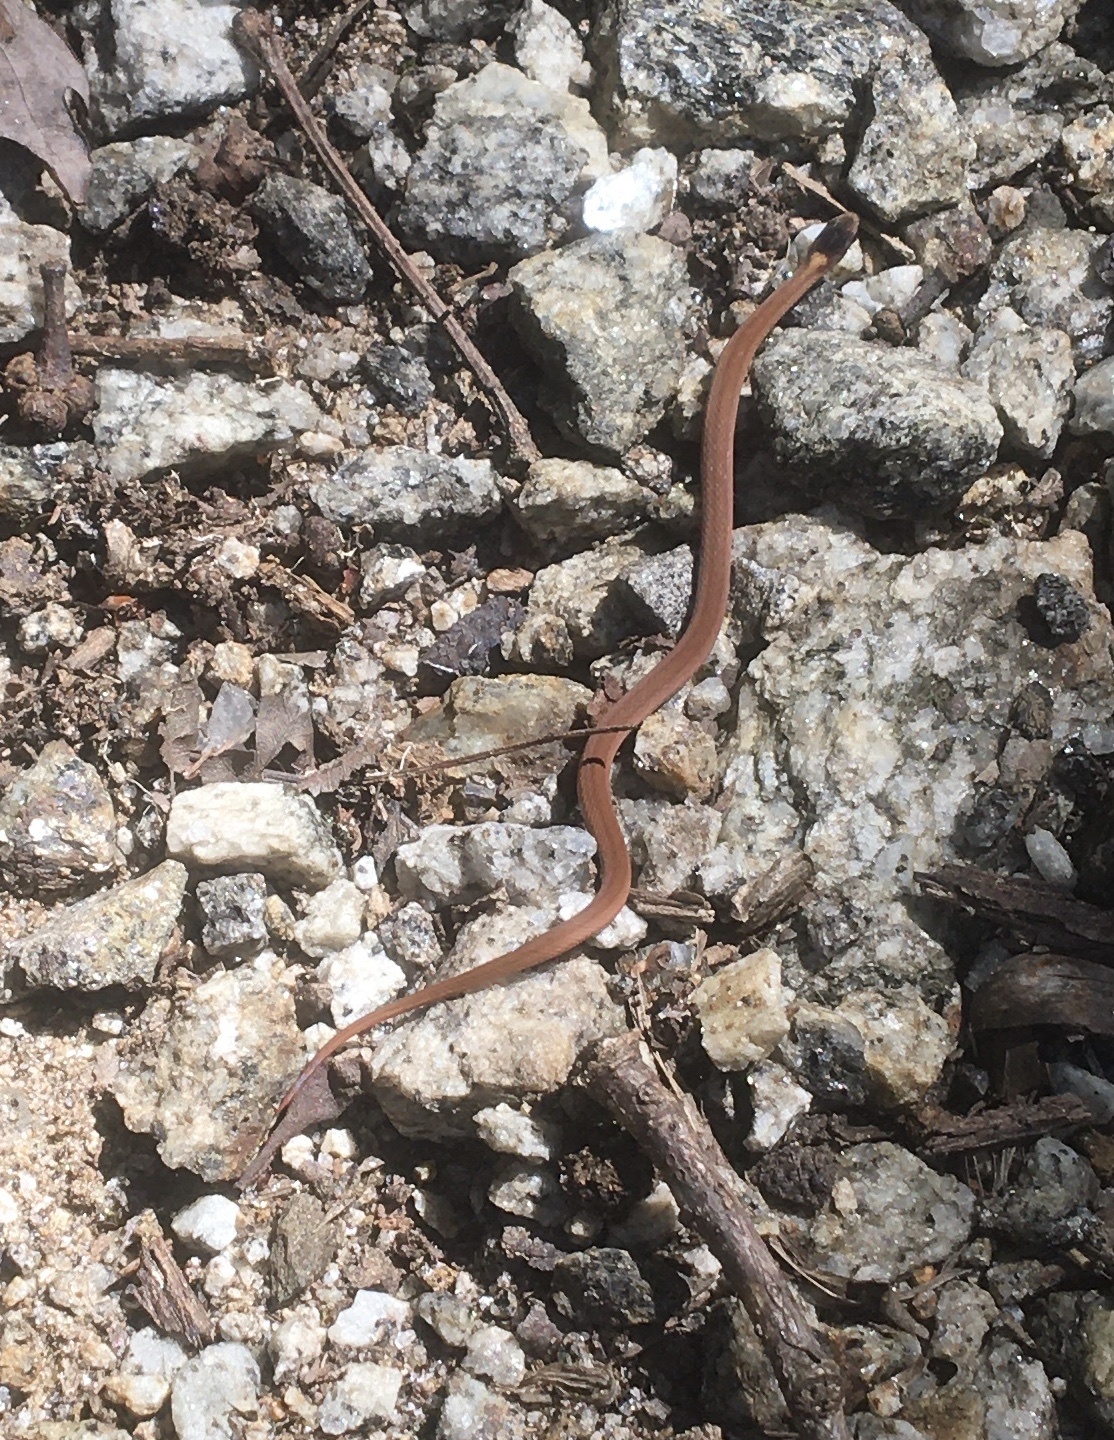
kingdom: Animalia
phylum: Chordata
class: Squamata
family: Colubridae
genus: Storeria
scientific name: Storeria occipitomaculata
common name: Redbelly snake
